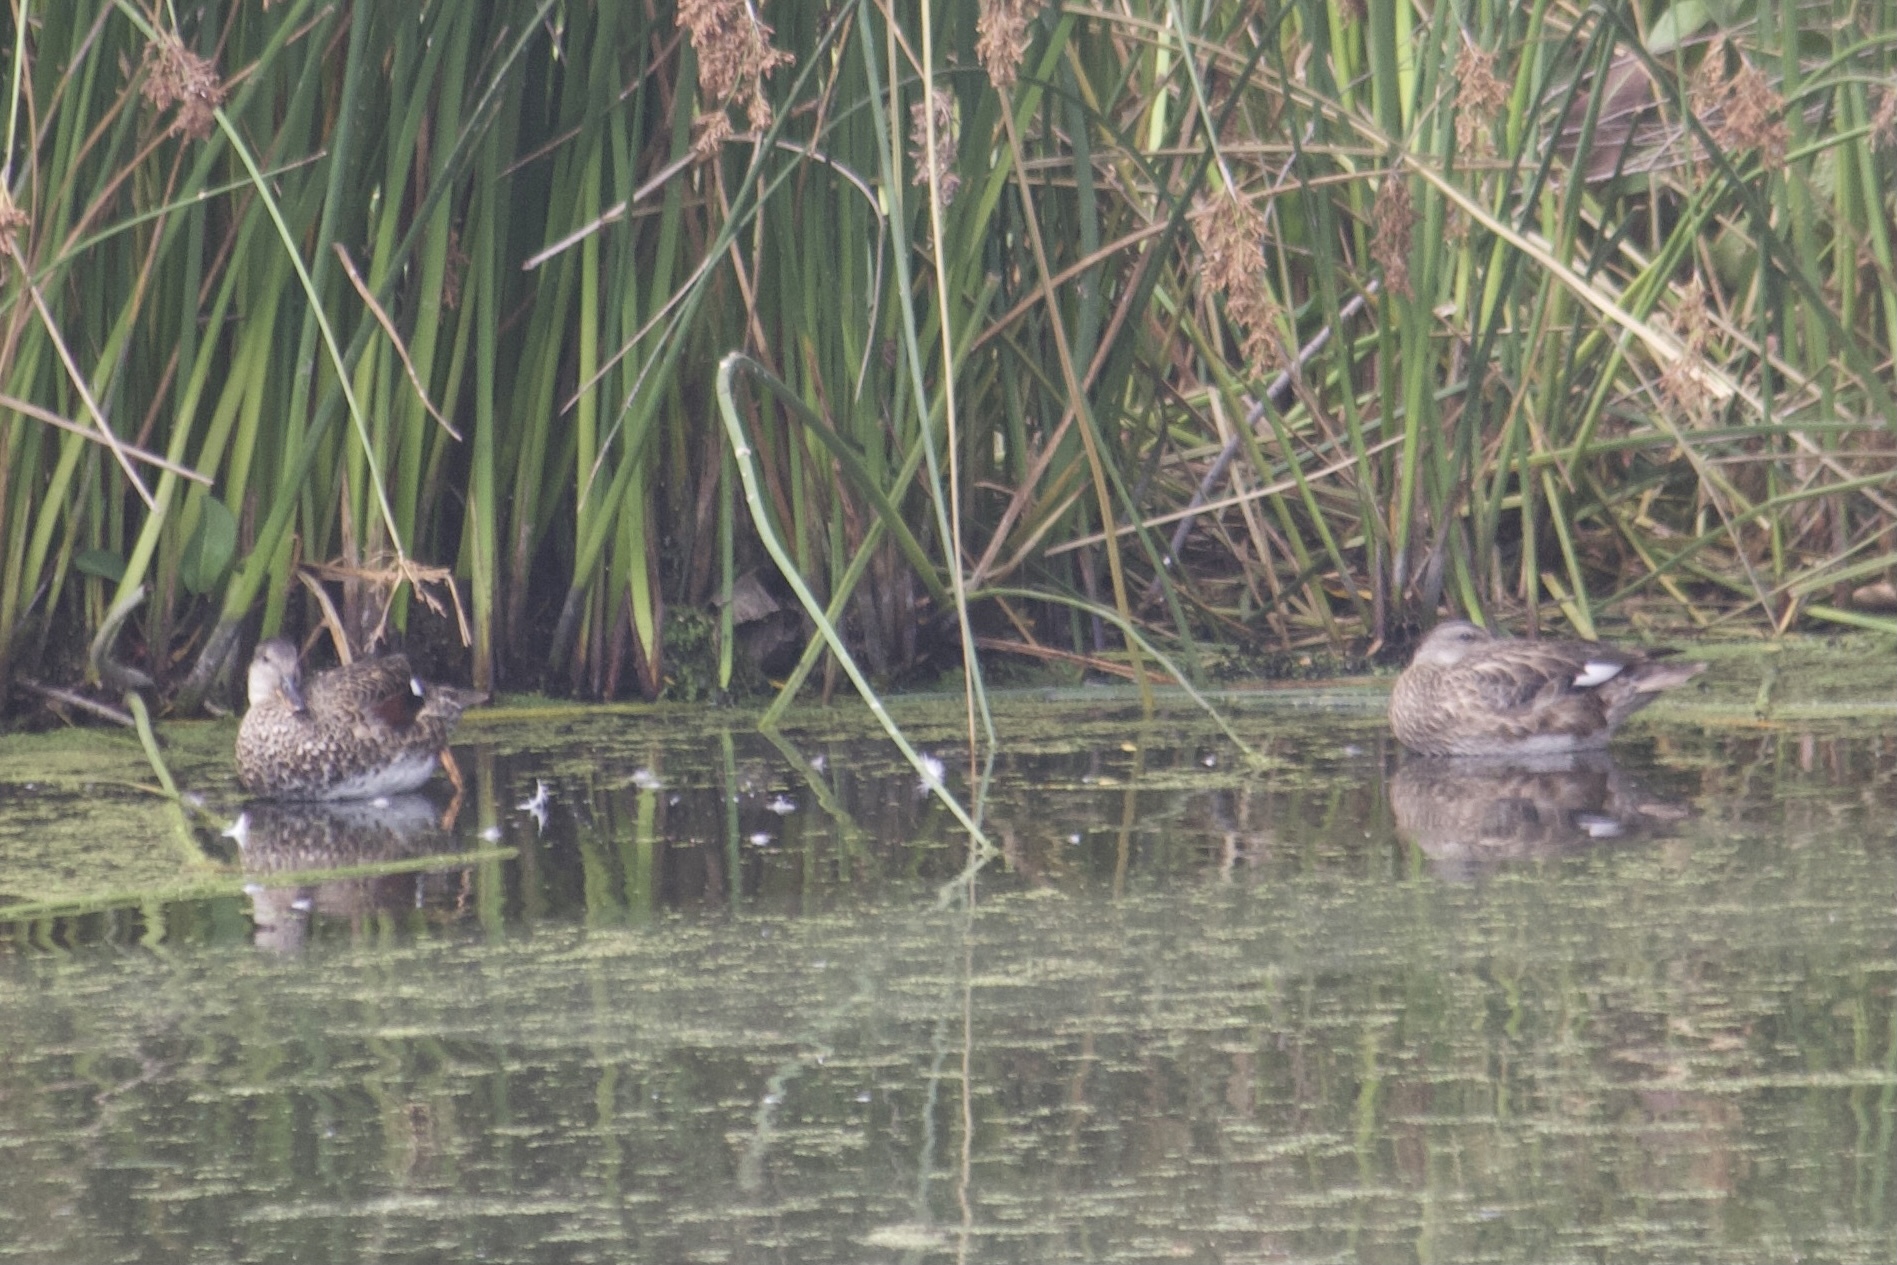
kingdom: Animalia
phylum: Chordata
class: Aves
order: Anseriformes
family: Anatidae
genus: Mareca
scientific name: Mareca strepera
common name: Gadwall
